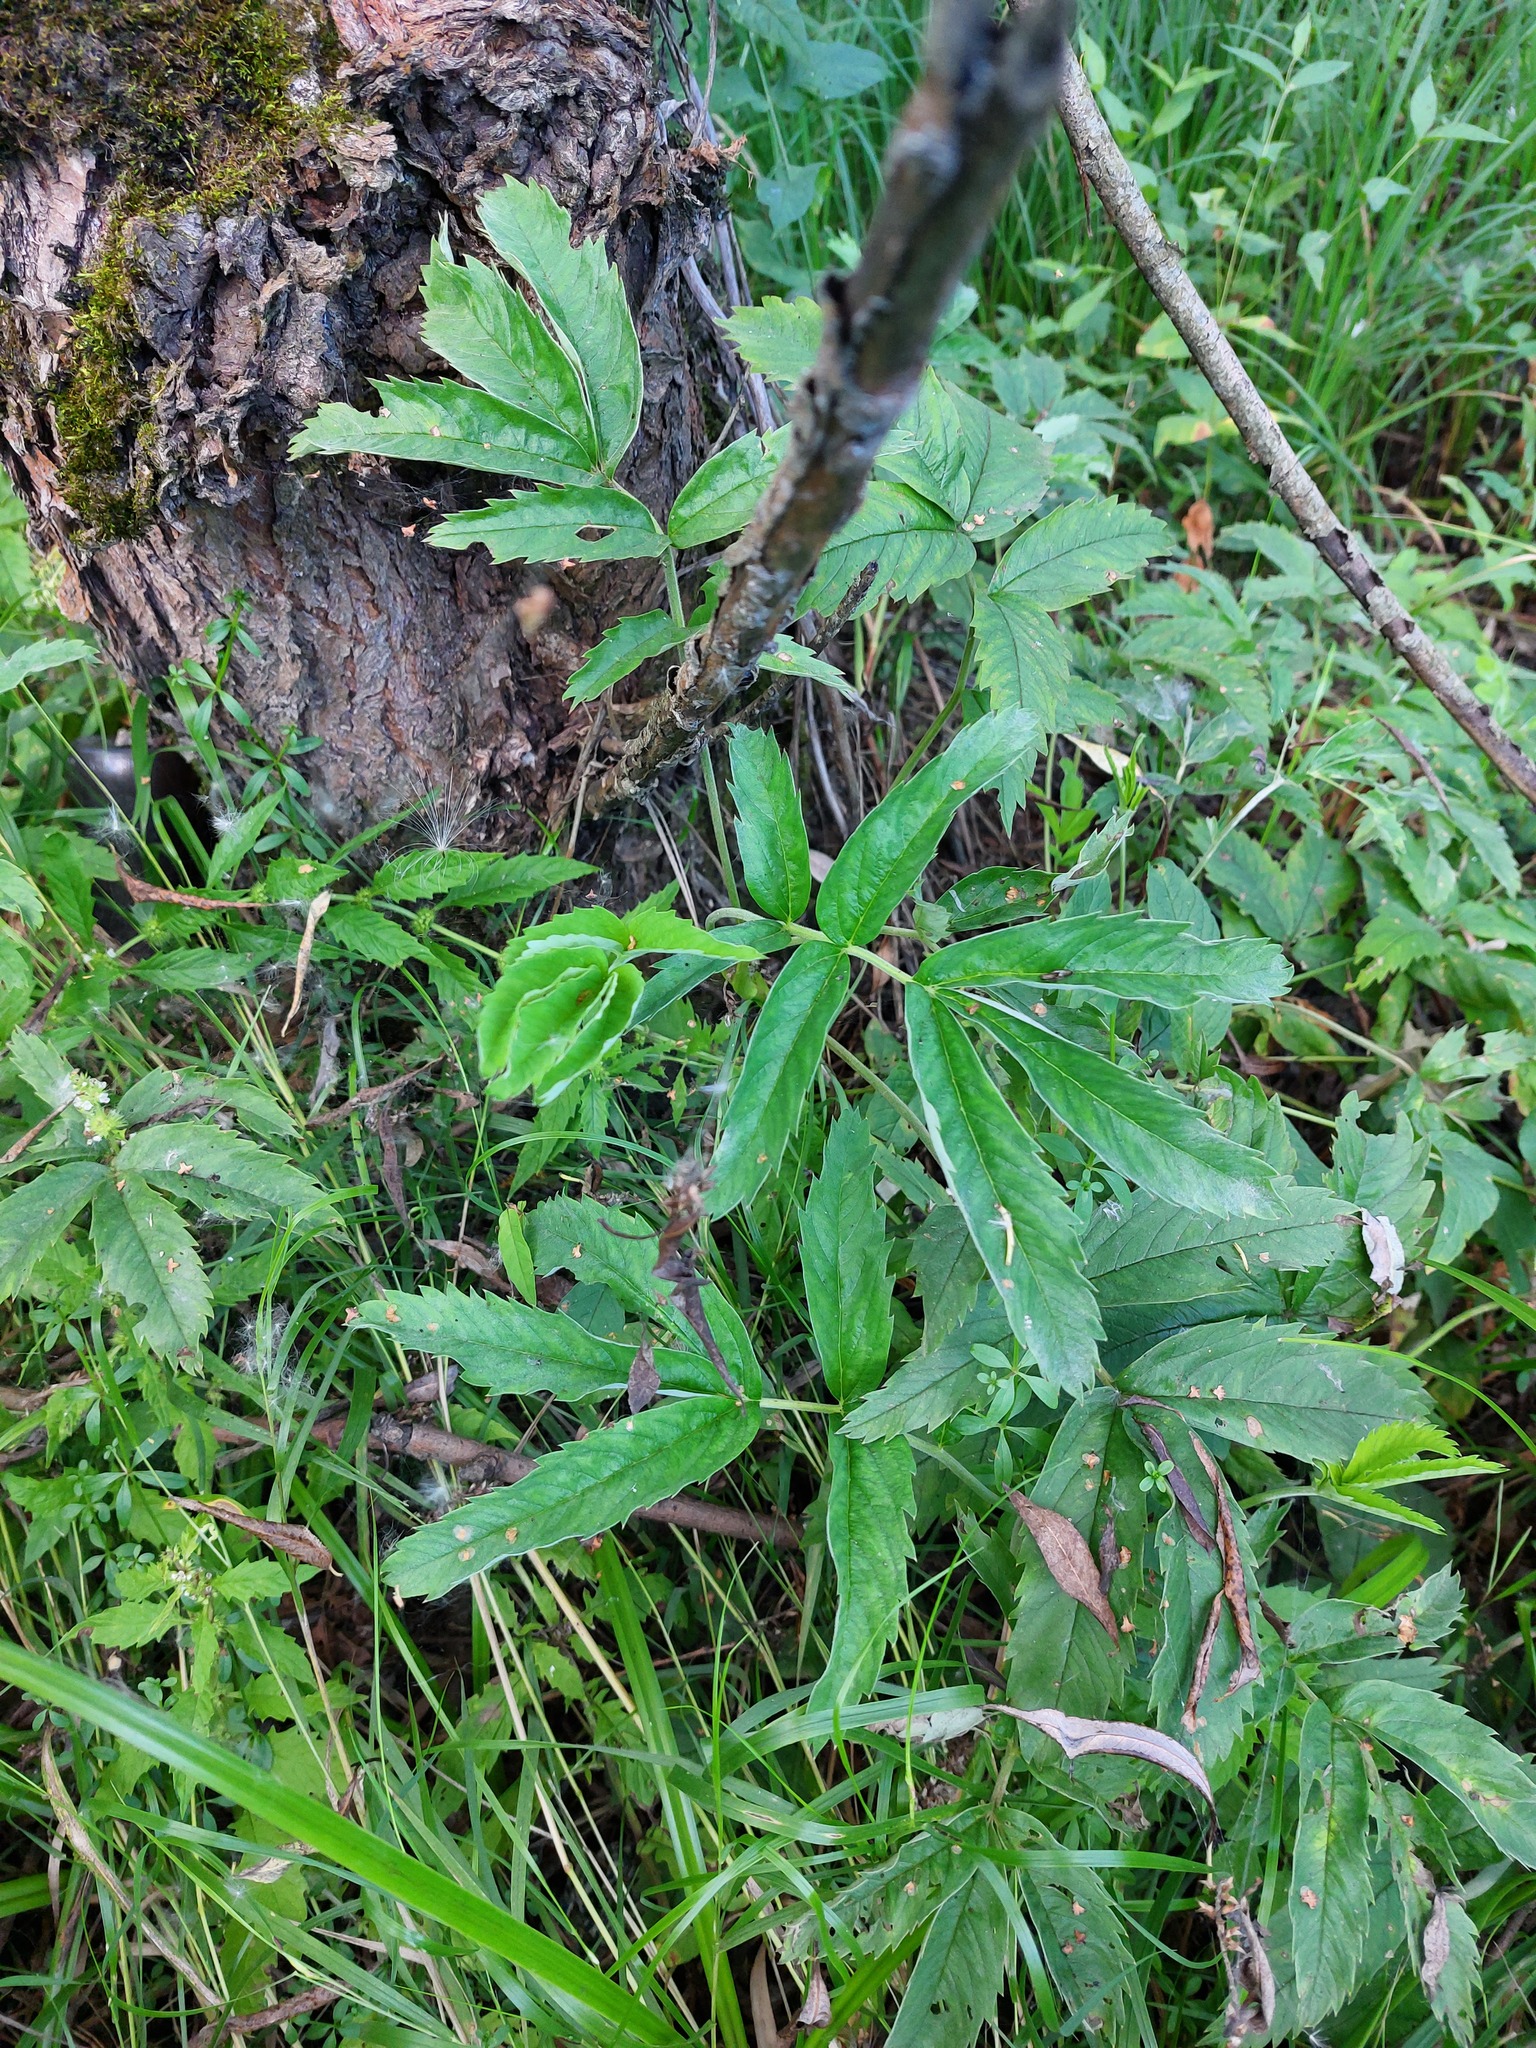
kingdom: Plantae
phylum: Tracheophyta
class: Magnoliopsida
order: Rosales
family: Rosaceae
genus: Comarum
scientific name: Comarum palustre
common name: Marsh cinquefoil
